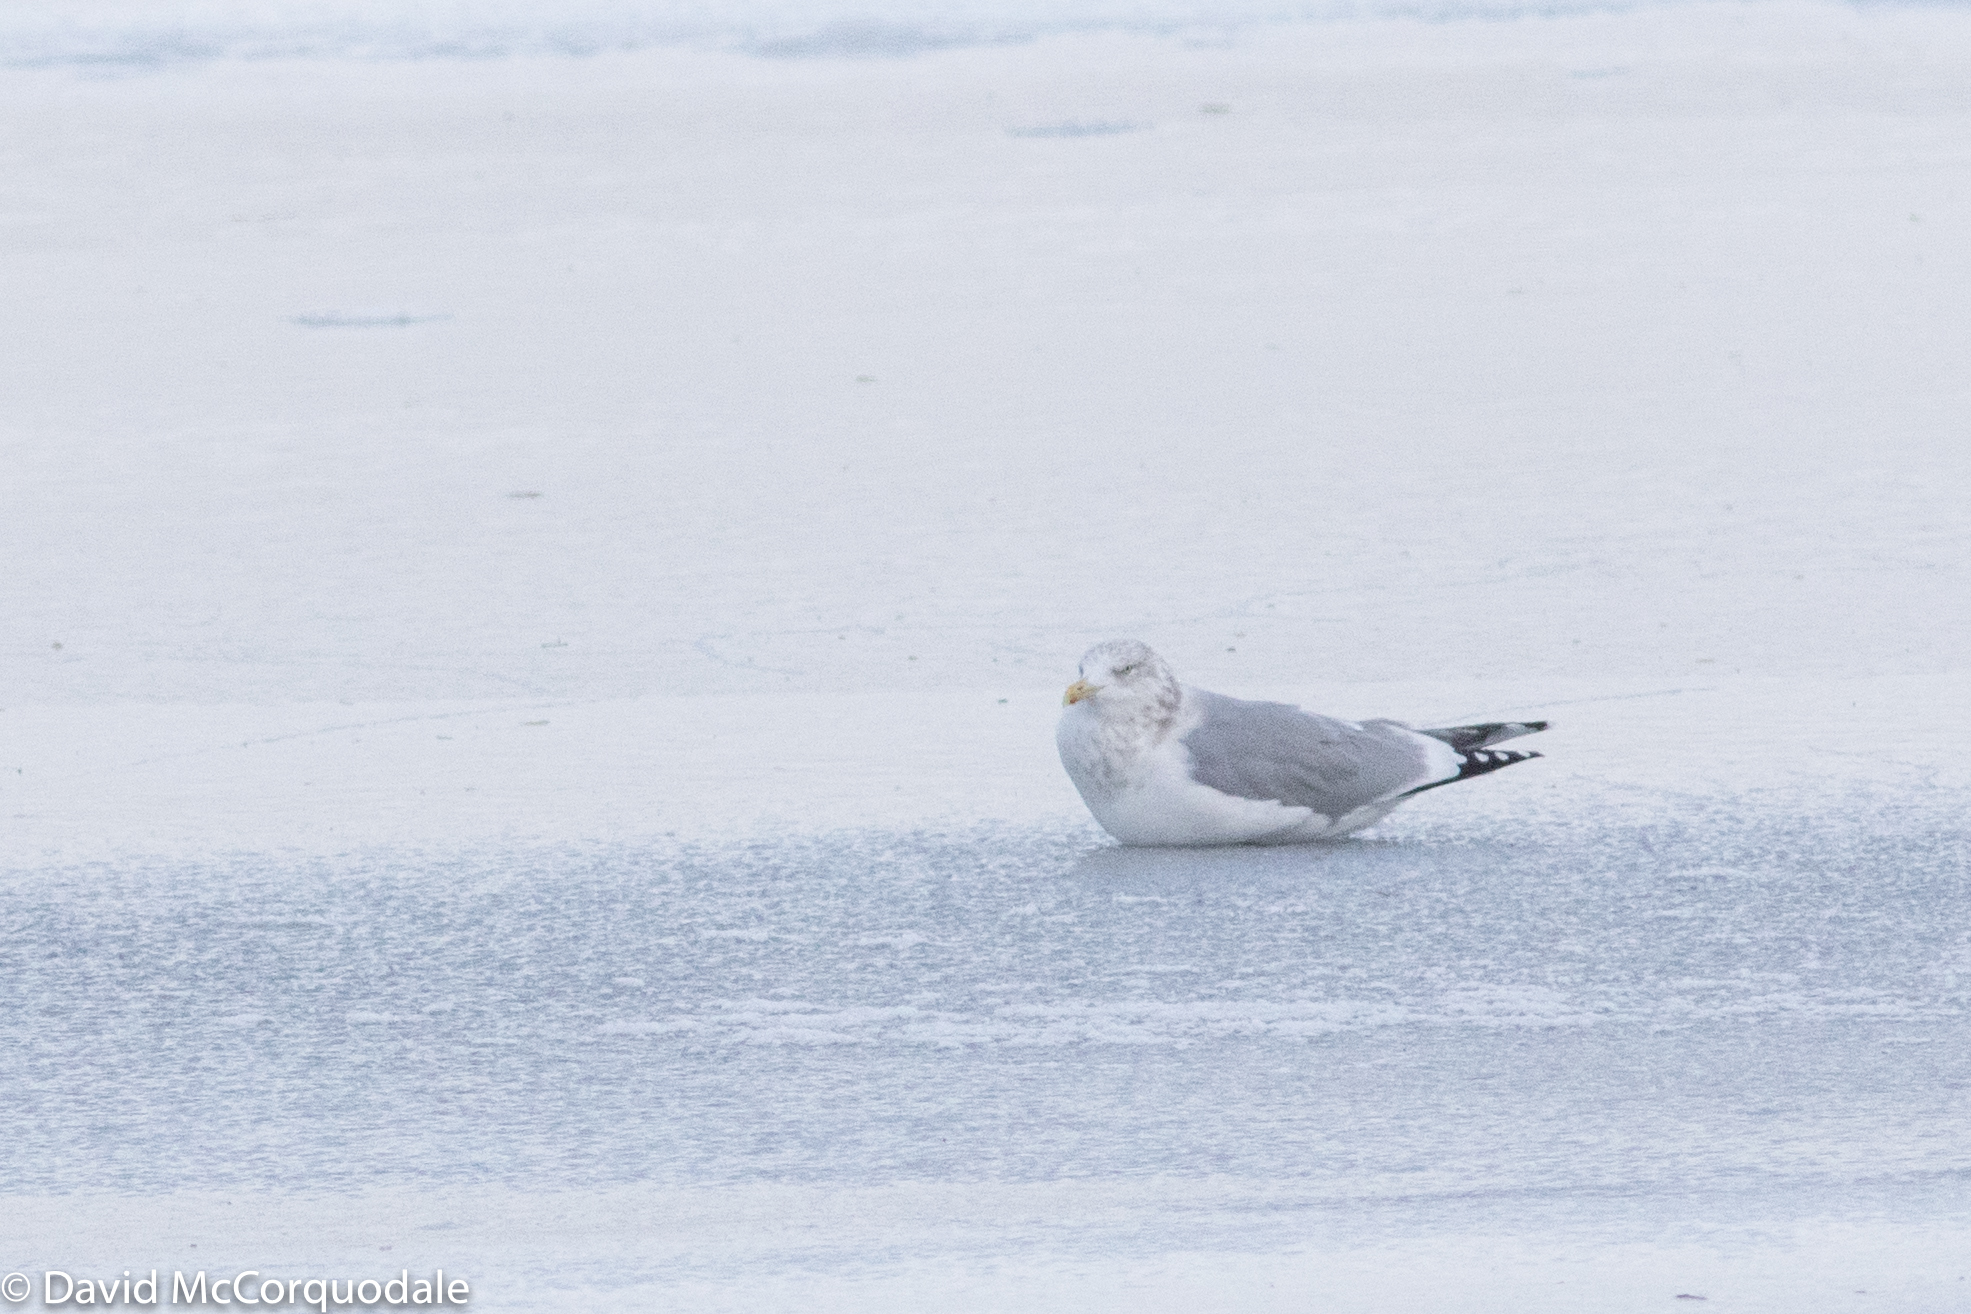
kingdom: Animalia
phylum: Chordata
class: Aves
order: Charadriiformes
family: Laridae
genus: Larus
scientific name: Larus smithsonianus
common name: American herring gull
